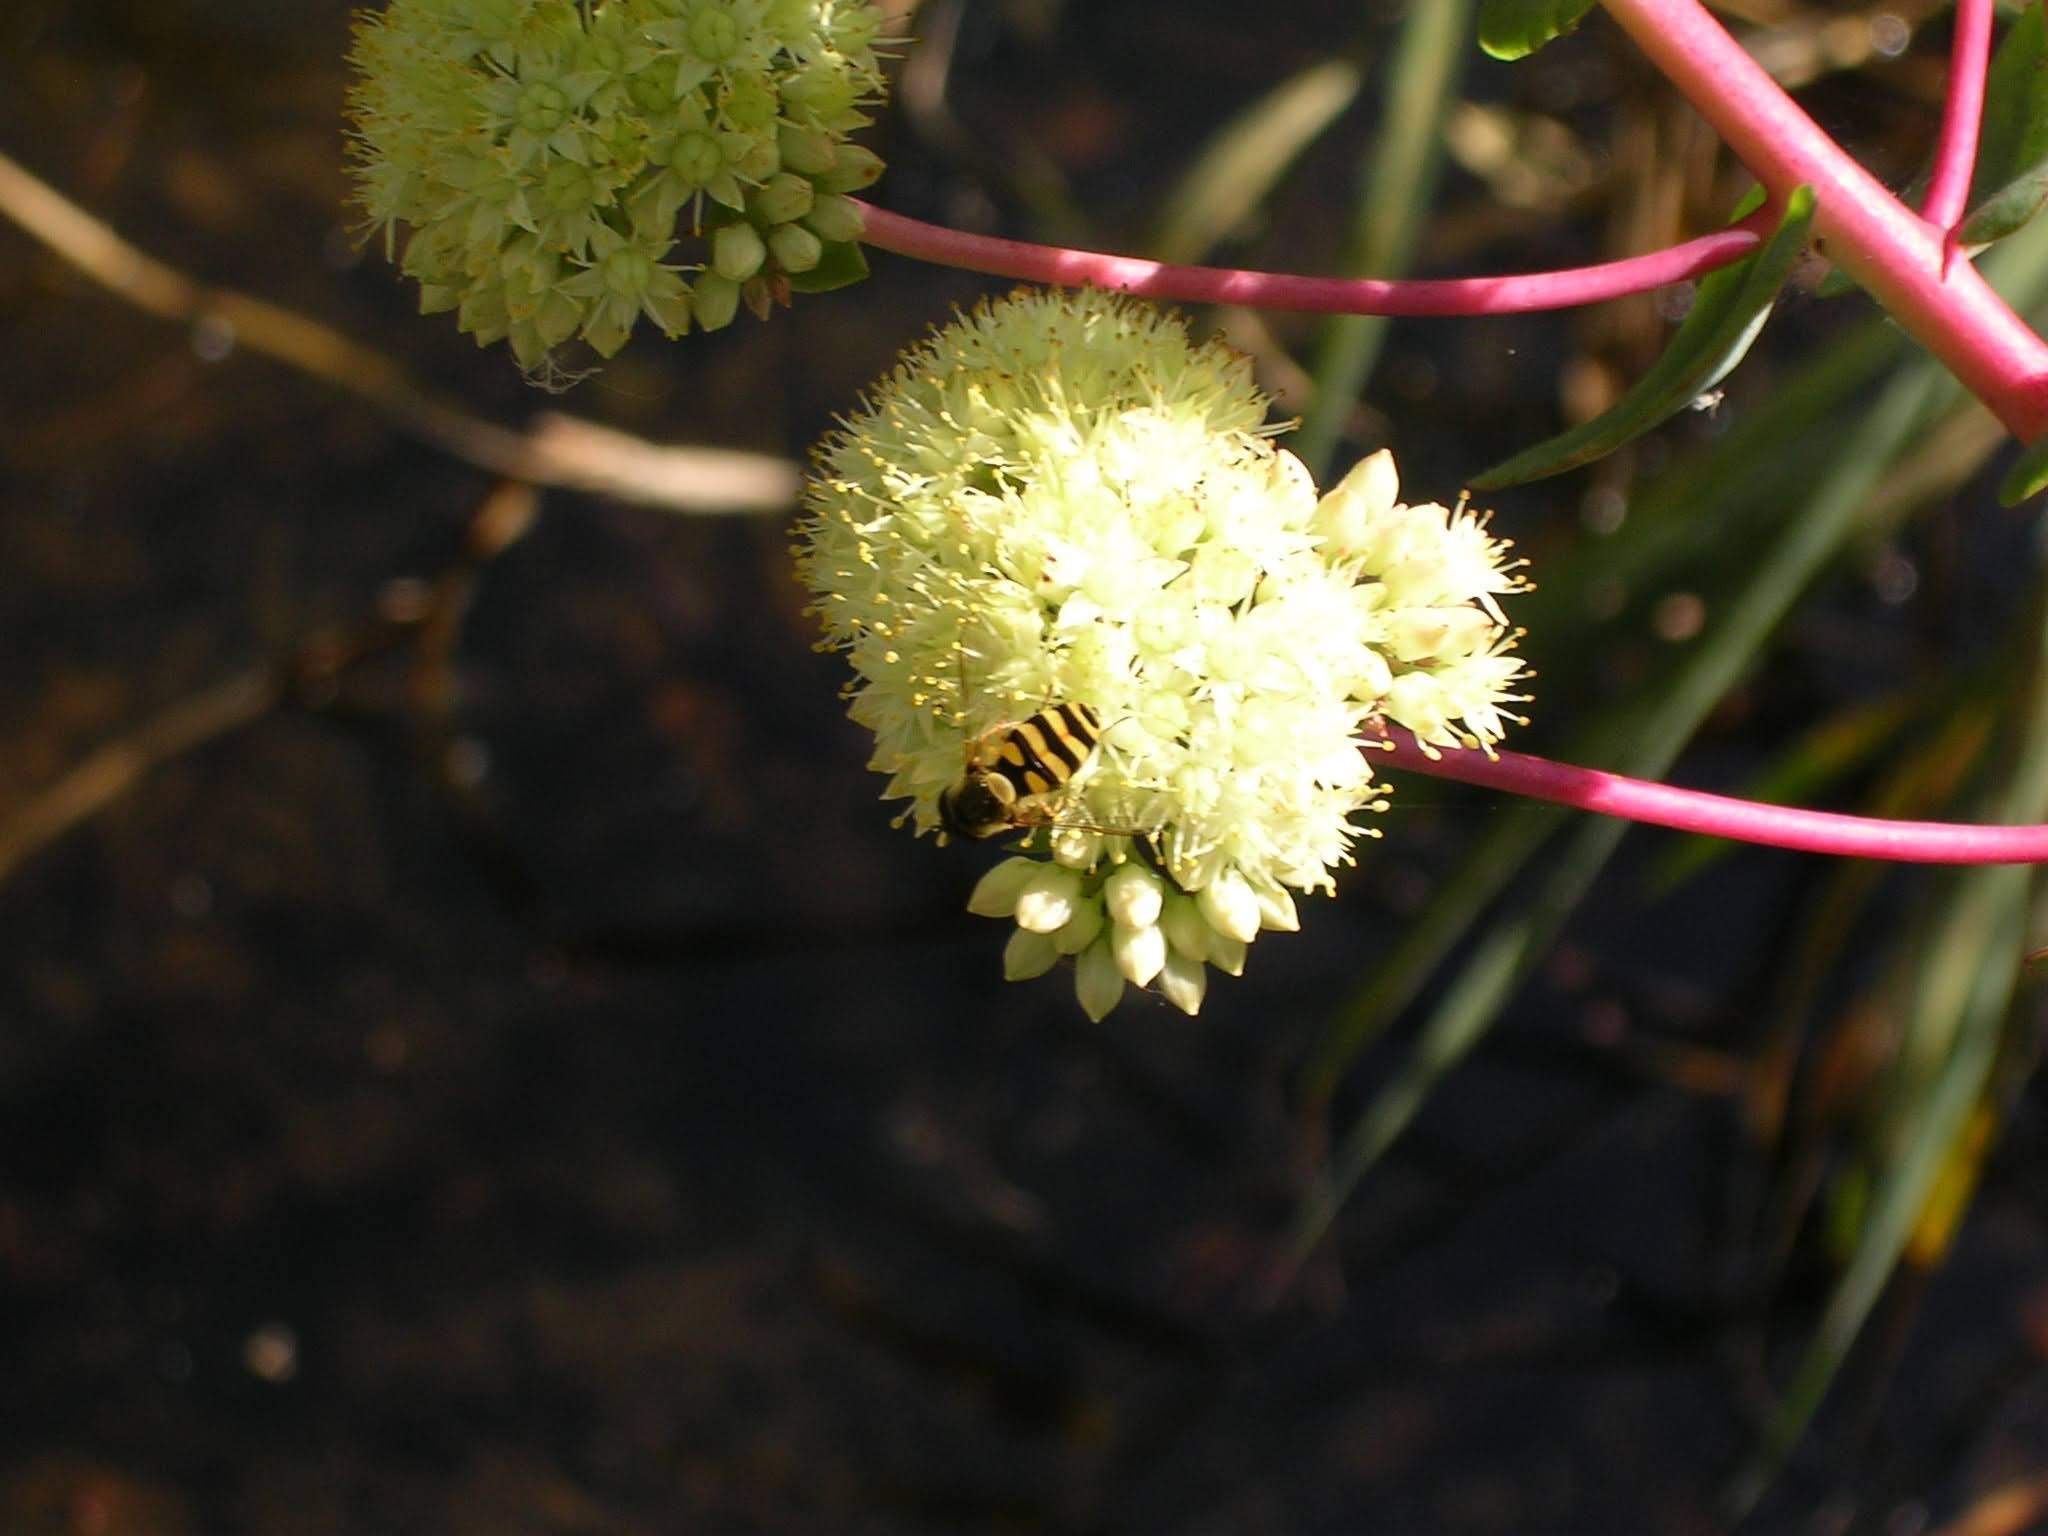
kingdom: Animalia
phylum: Arthropoda
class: Insecta
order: Diptera
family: Syrphidae
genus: Syrphus
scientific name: Syrphus
